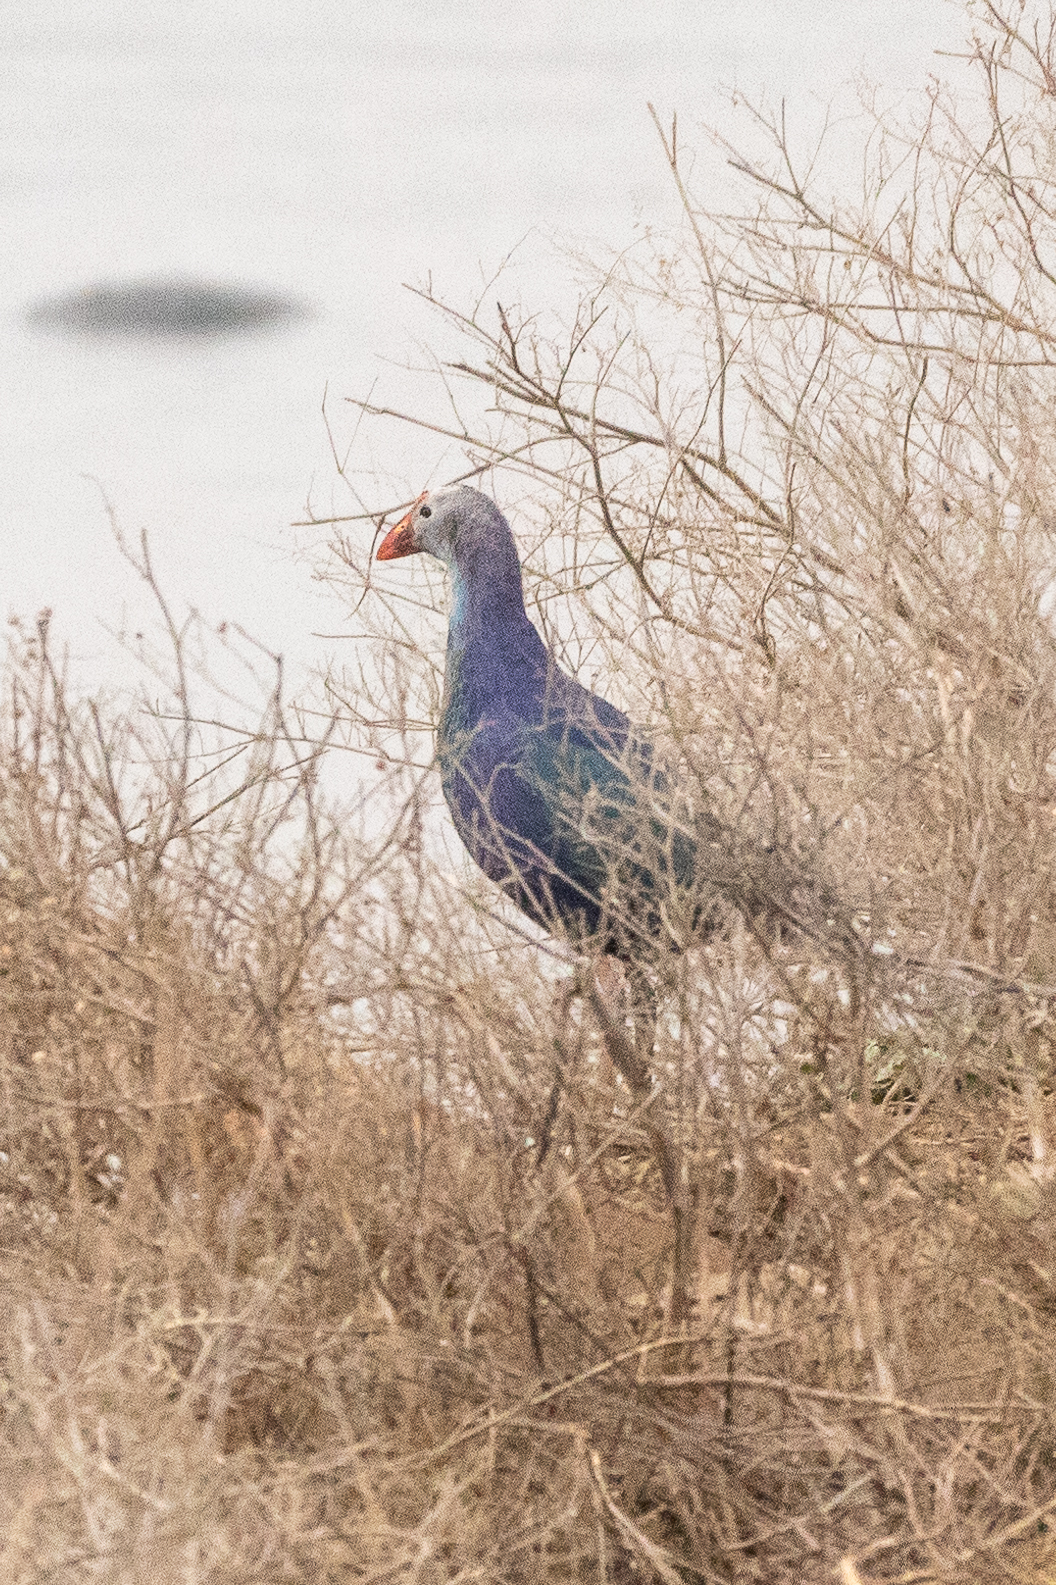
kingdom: Animalia
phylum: Chordata
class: Aves
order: Gruiformes
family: Rallidae
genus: Porphyrio
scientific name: Porphyrio porphyrio
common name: Purple swamphen
